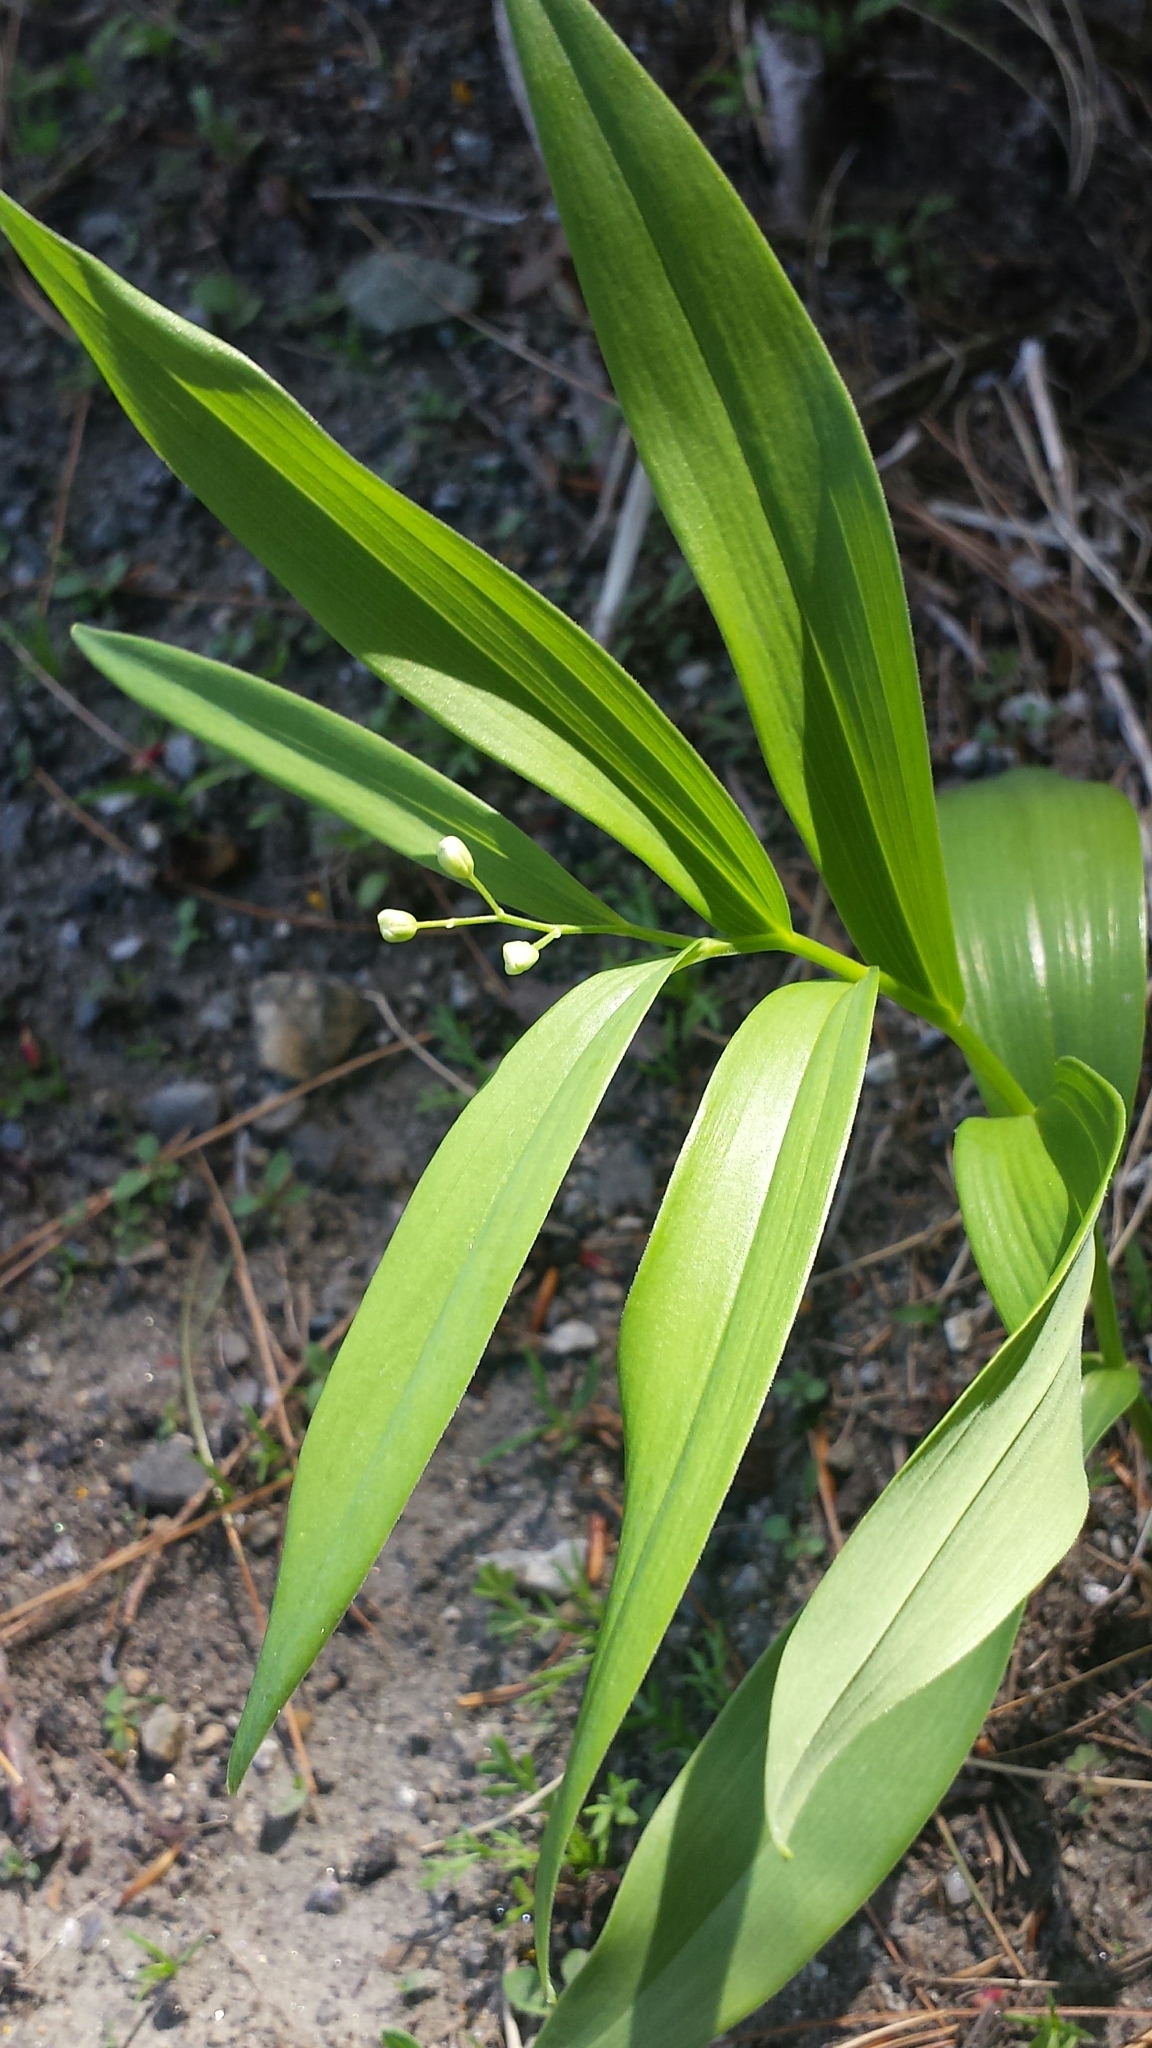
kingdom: Plantae
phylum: Tracheophyta
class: Liliopsida
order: Asparagales
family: Asparagaceae
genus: Maianthemum
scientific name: Maianthemum stellatum
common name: Little false solomon's seal
